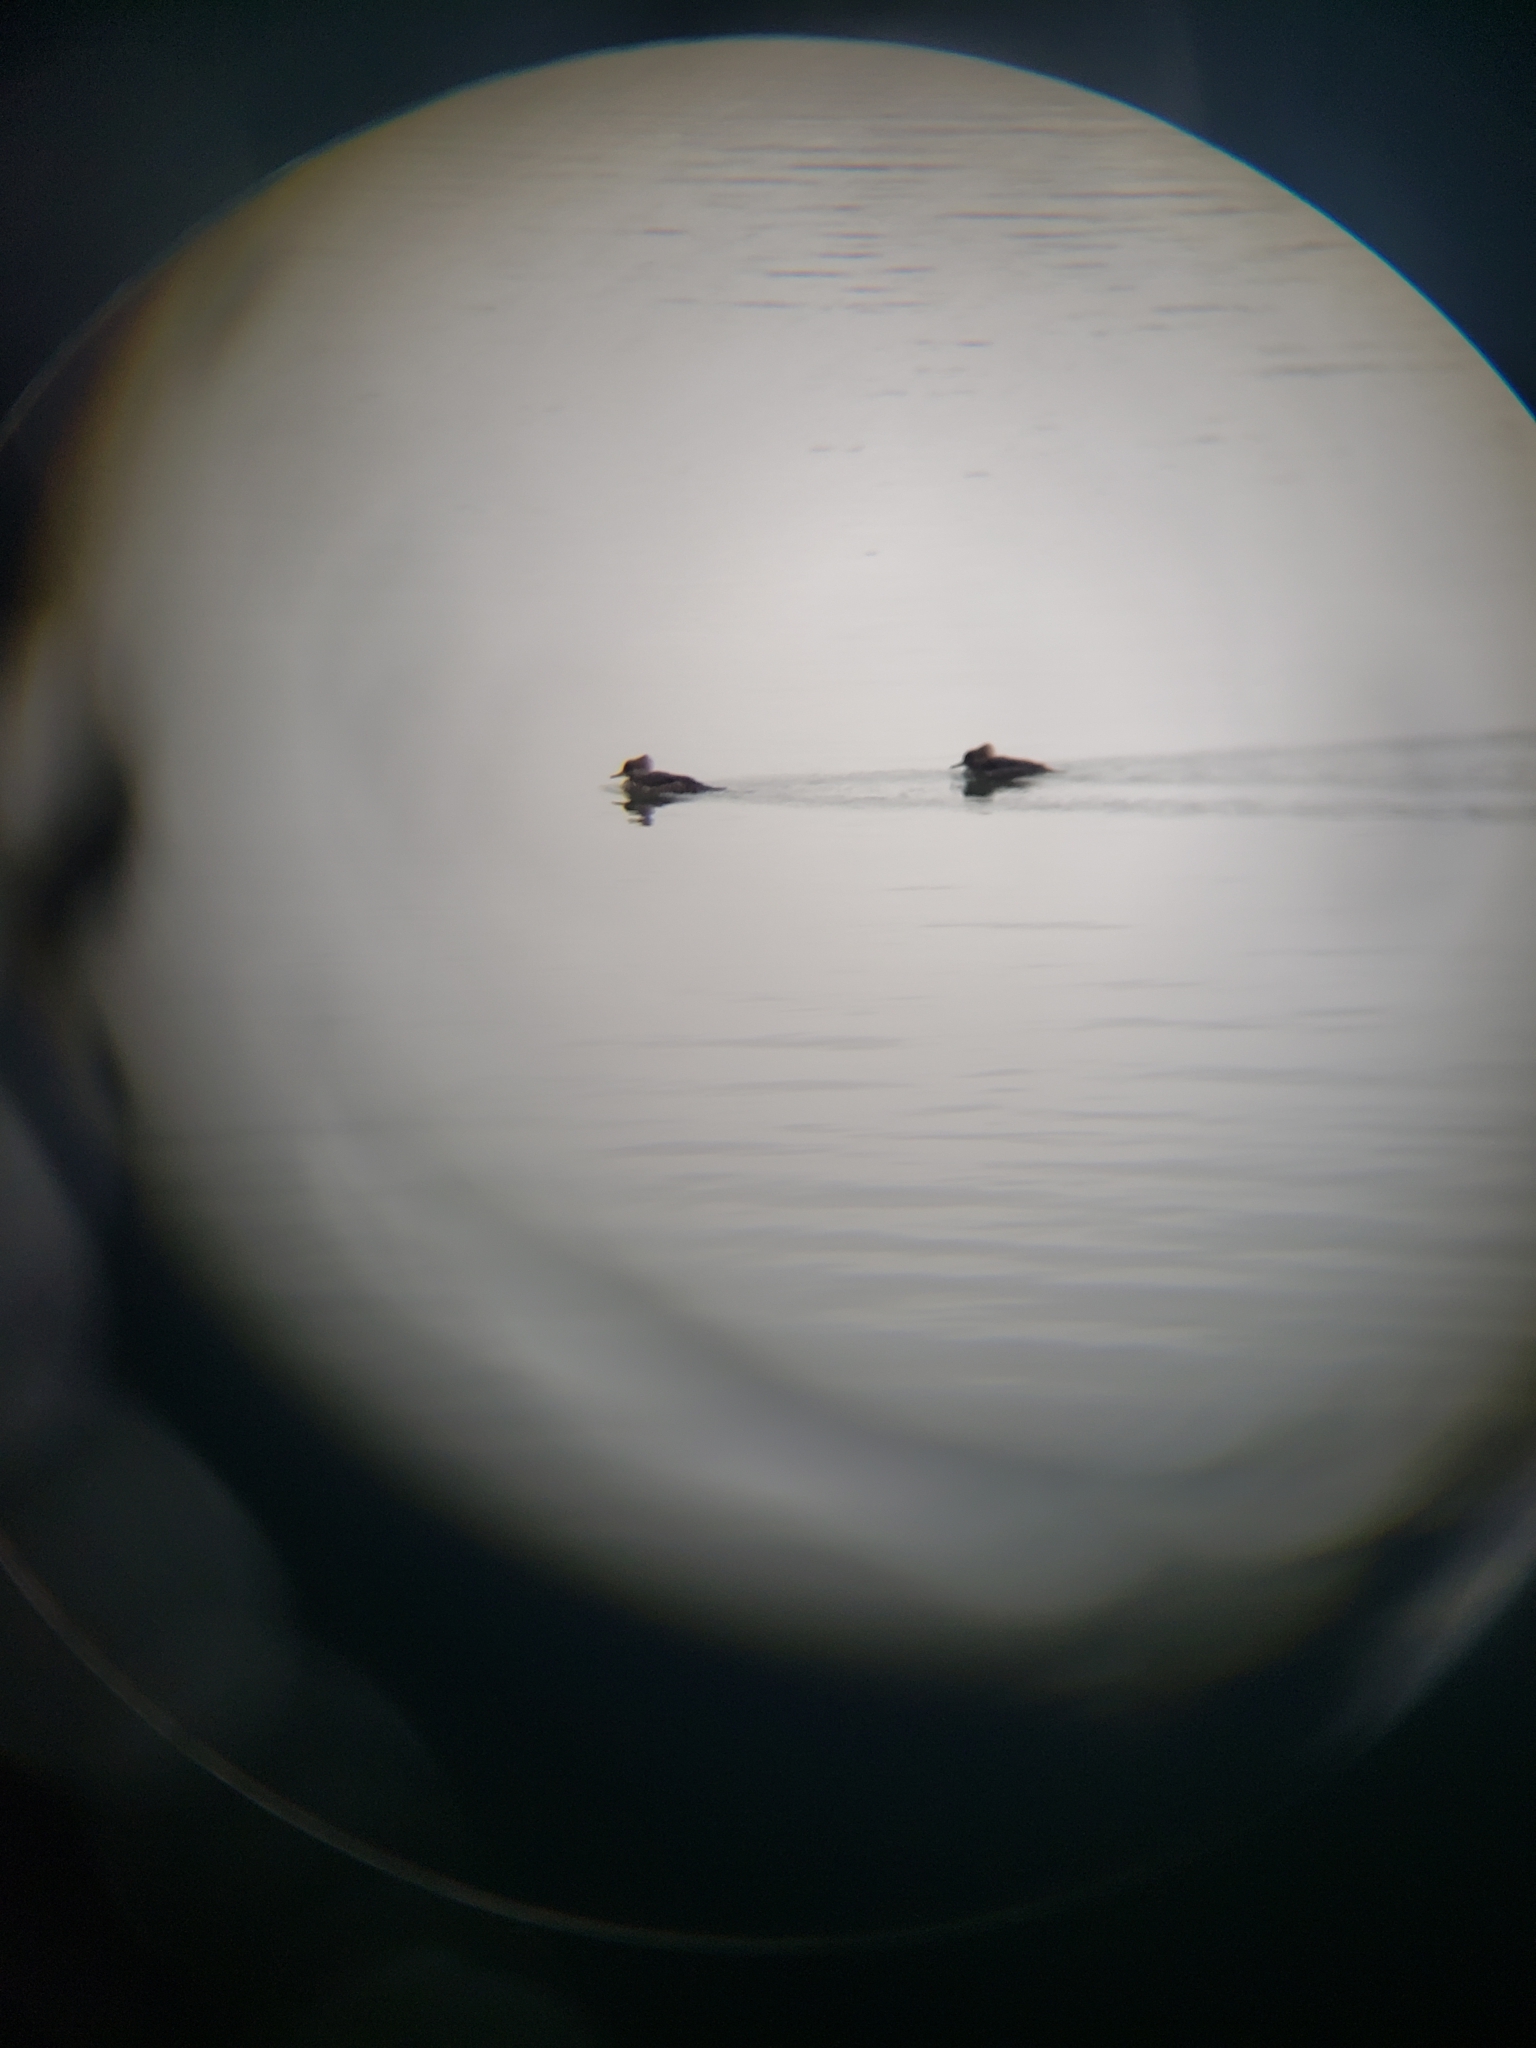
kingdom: Animalia
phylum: Chordata
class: Aves
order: Anseriformes
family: Anatidae
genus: Lophodytes
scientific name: Lophodytes cucullatus
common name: Hooded merganser
